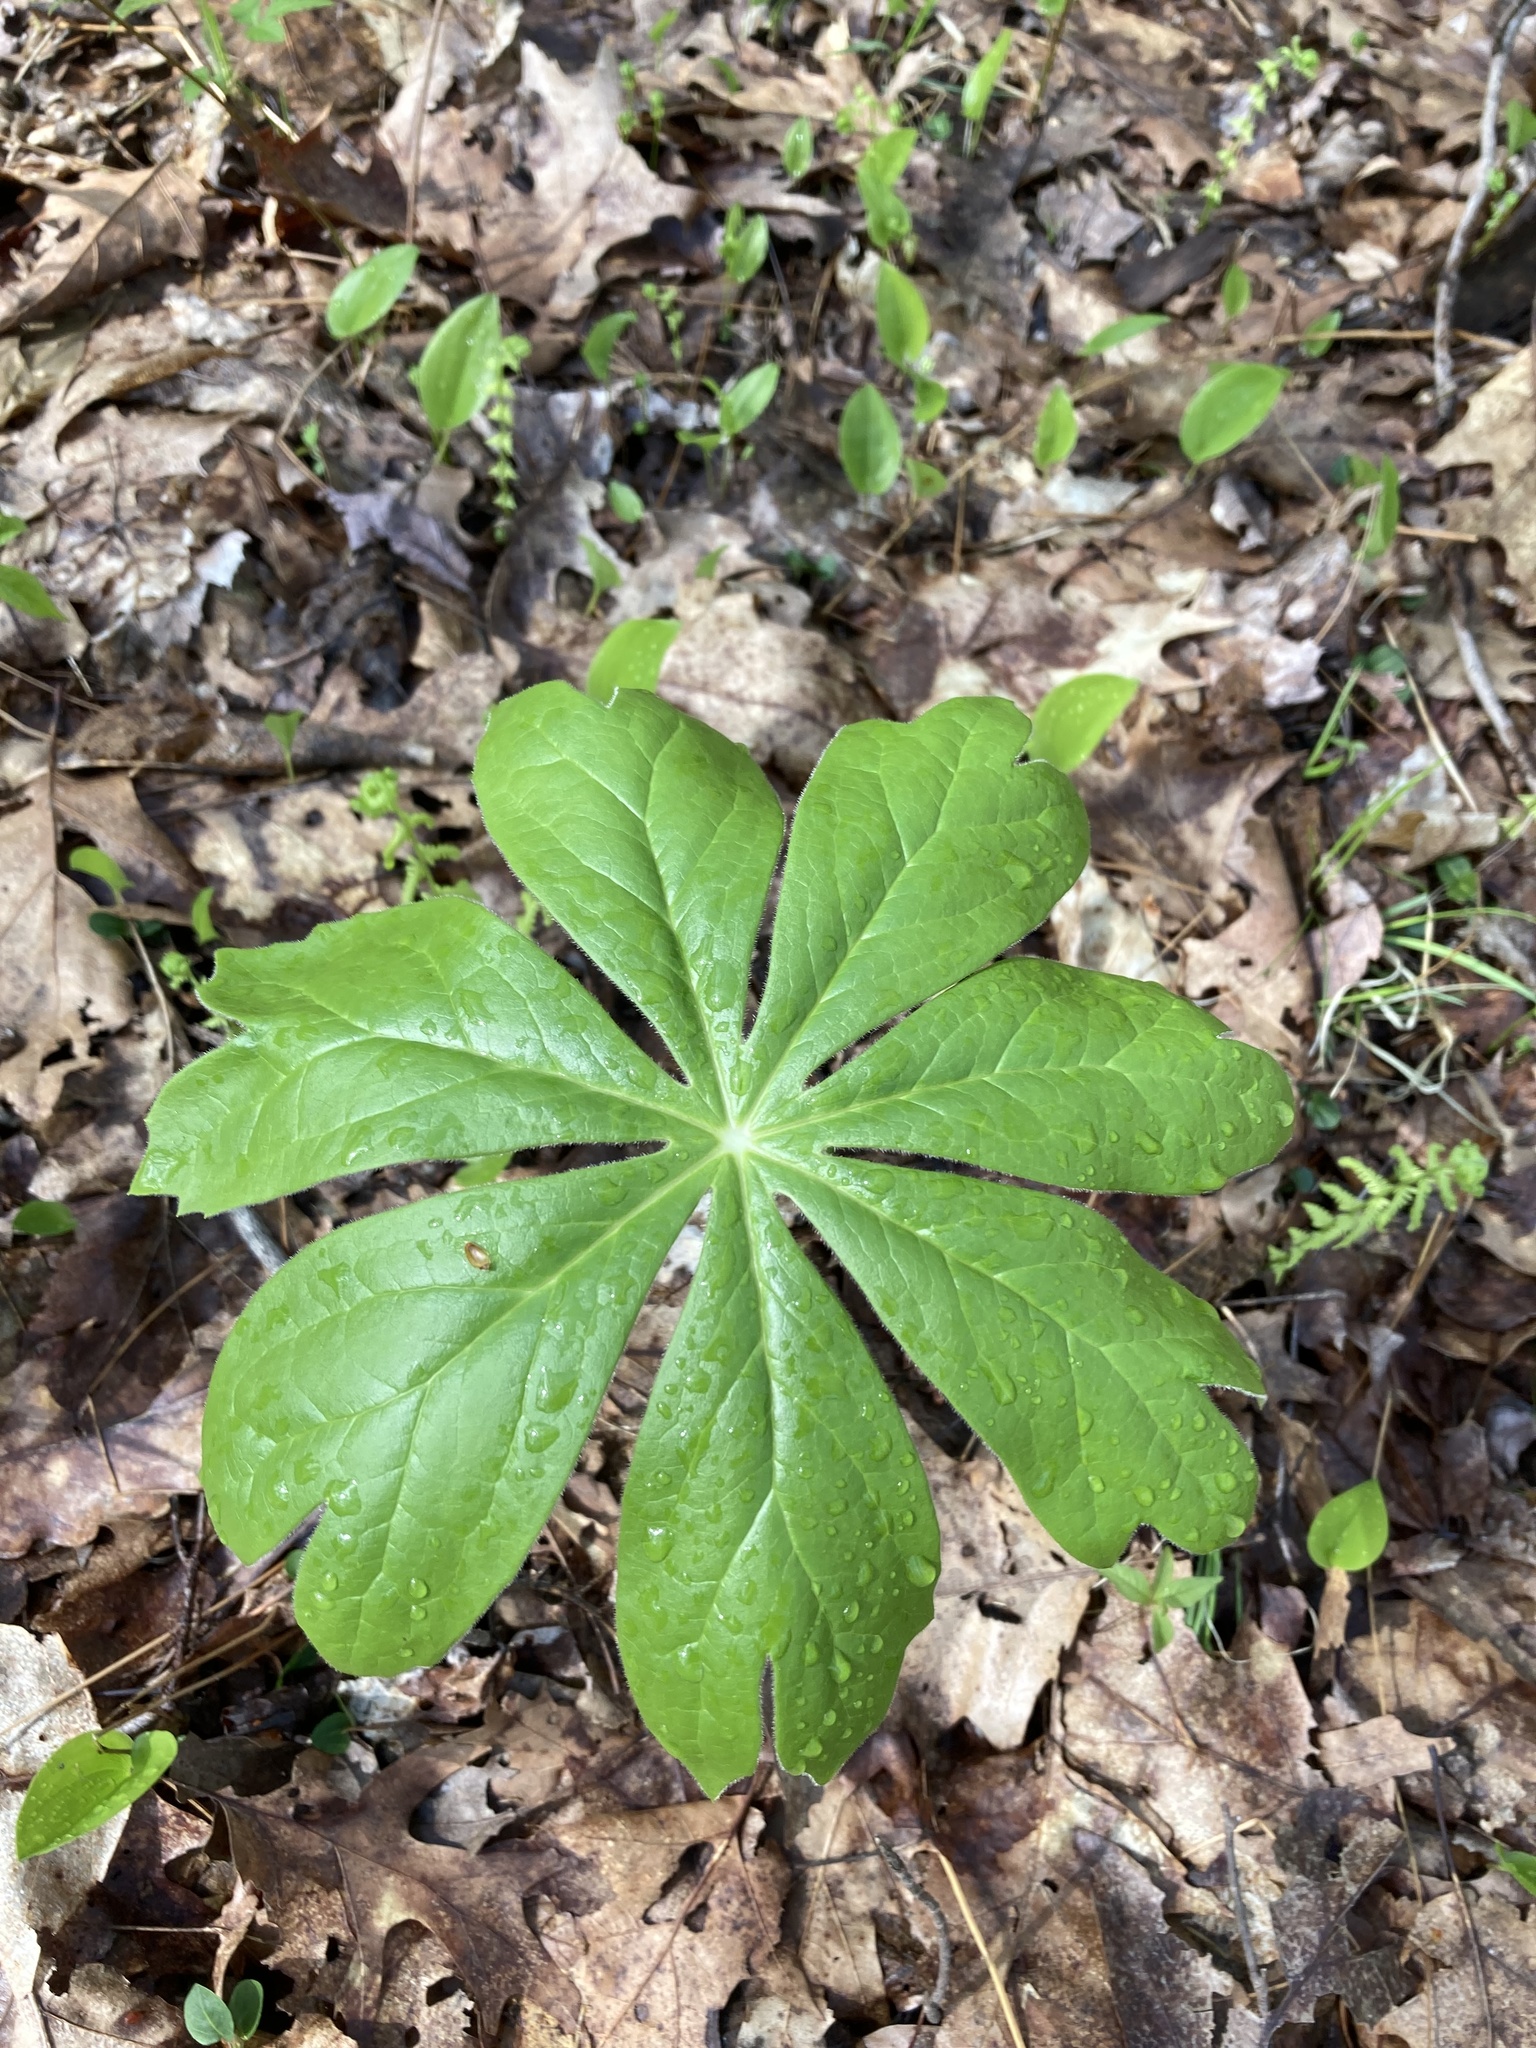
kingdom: Plantae
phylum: Tracheophyta
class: Magnoliopsida
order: Ranunculales
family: Berberidaceae
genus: Podophyllum
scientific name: Podophyllum peltatum
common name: Wild mandrake
